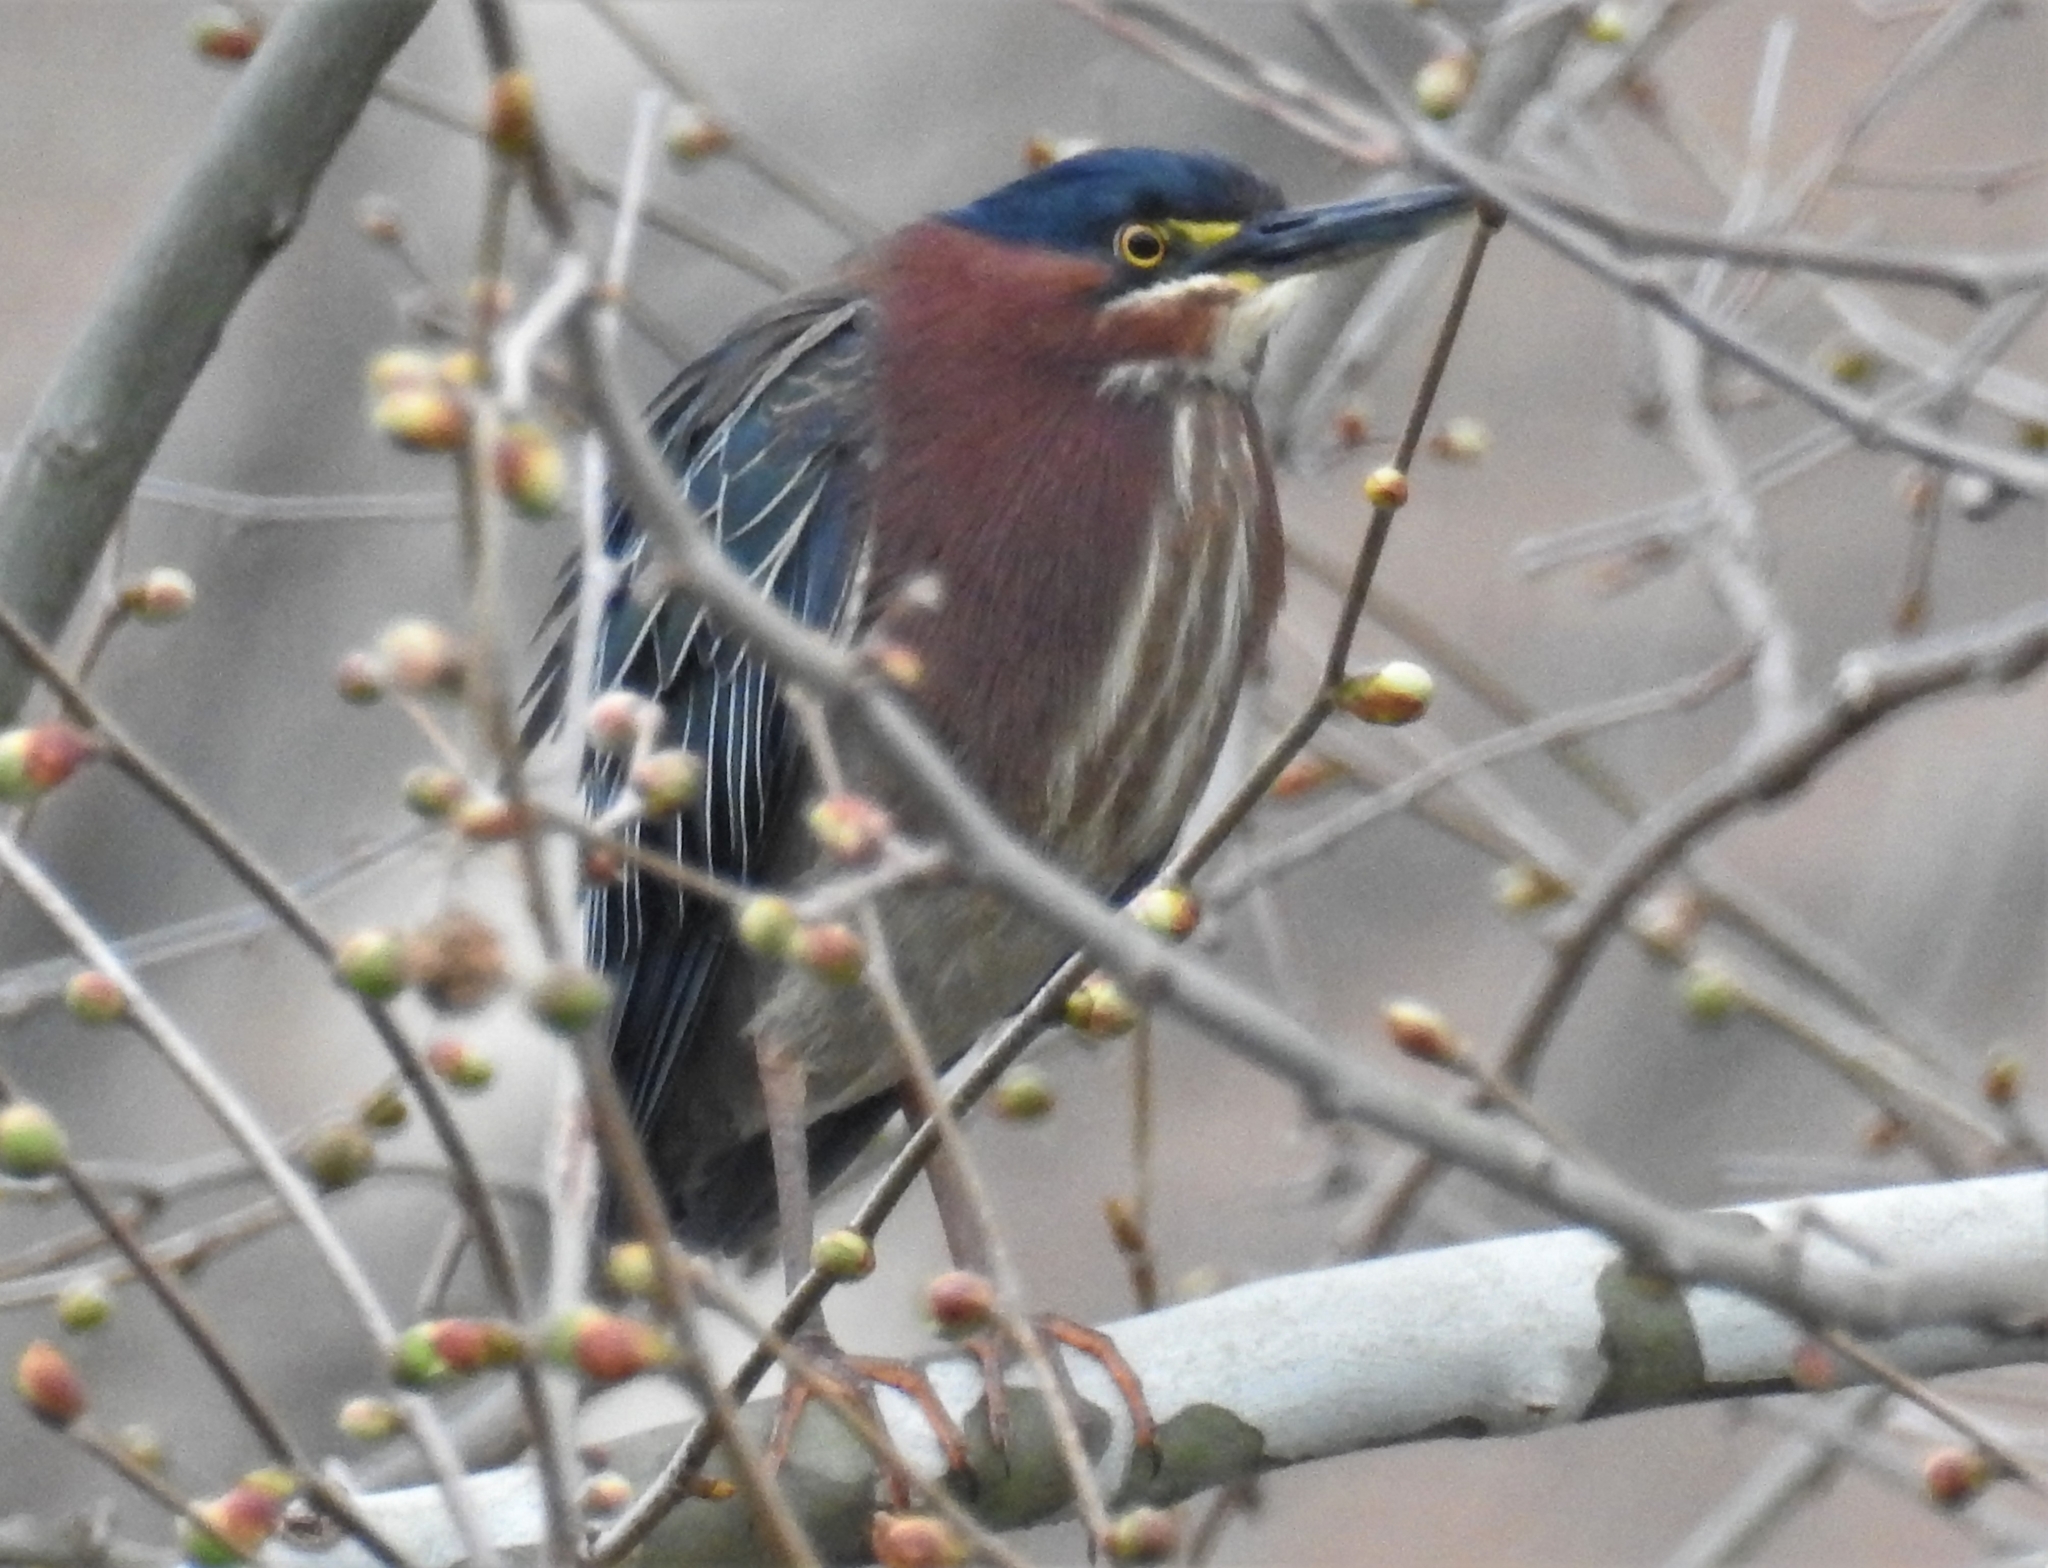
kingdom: Animalia
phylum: Chordata
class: Aves
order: Pelecaniformes
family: Ardeidae
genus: Butorides
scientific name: Butorides virescens
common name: Green heron
